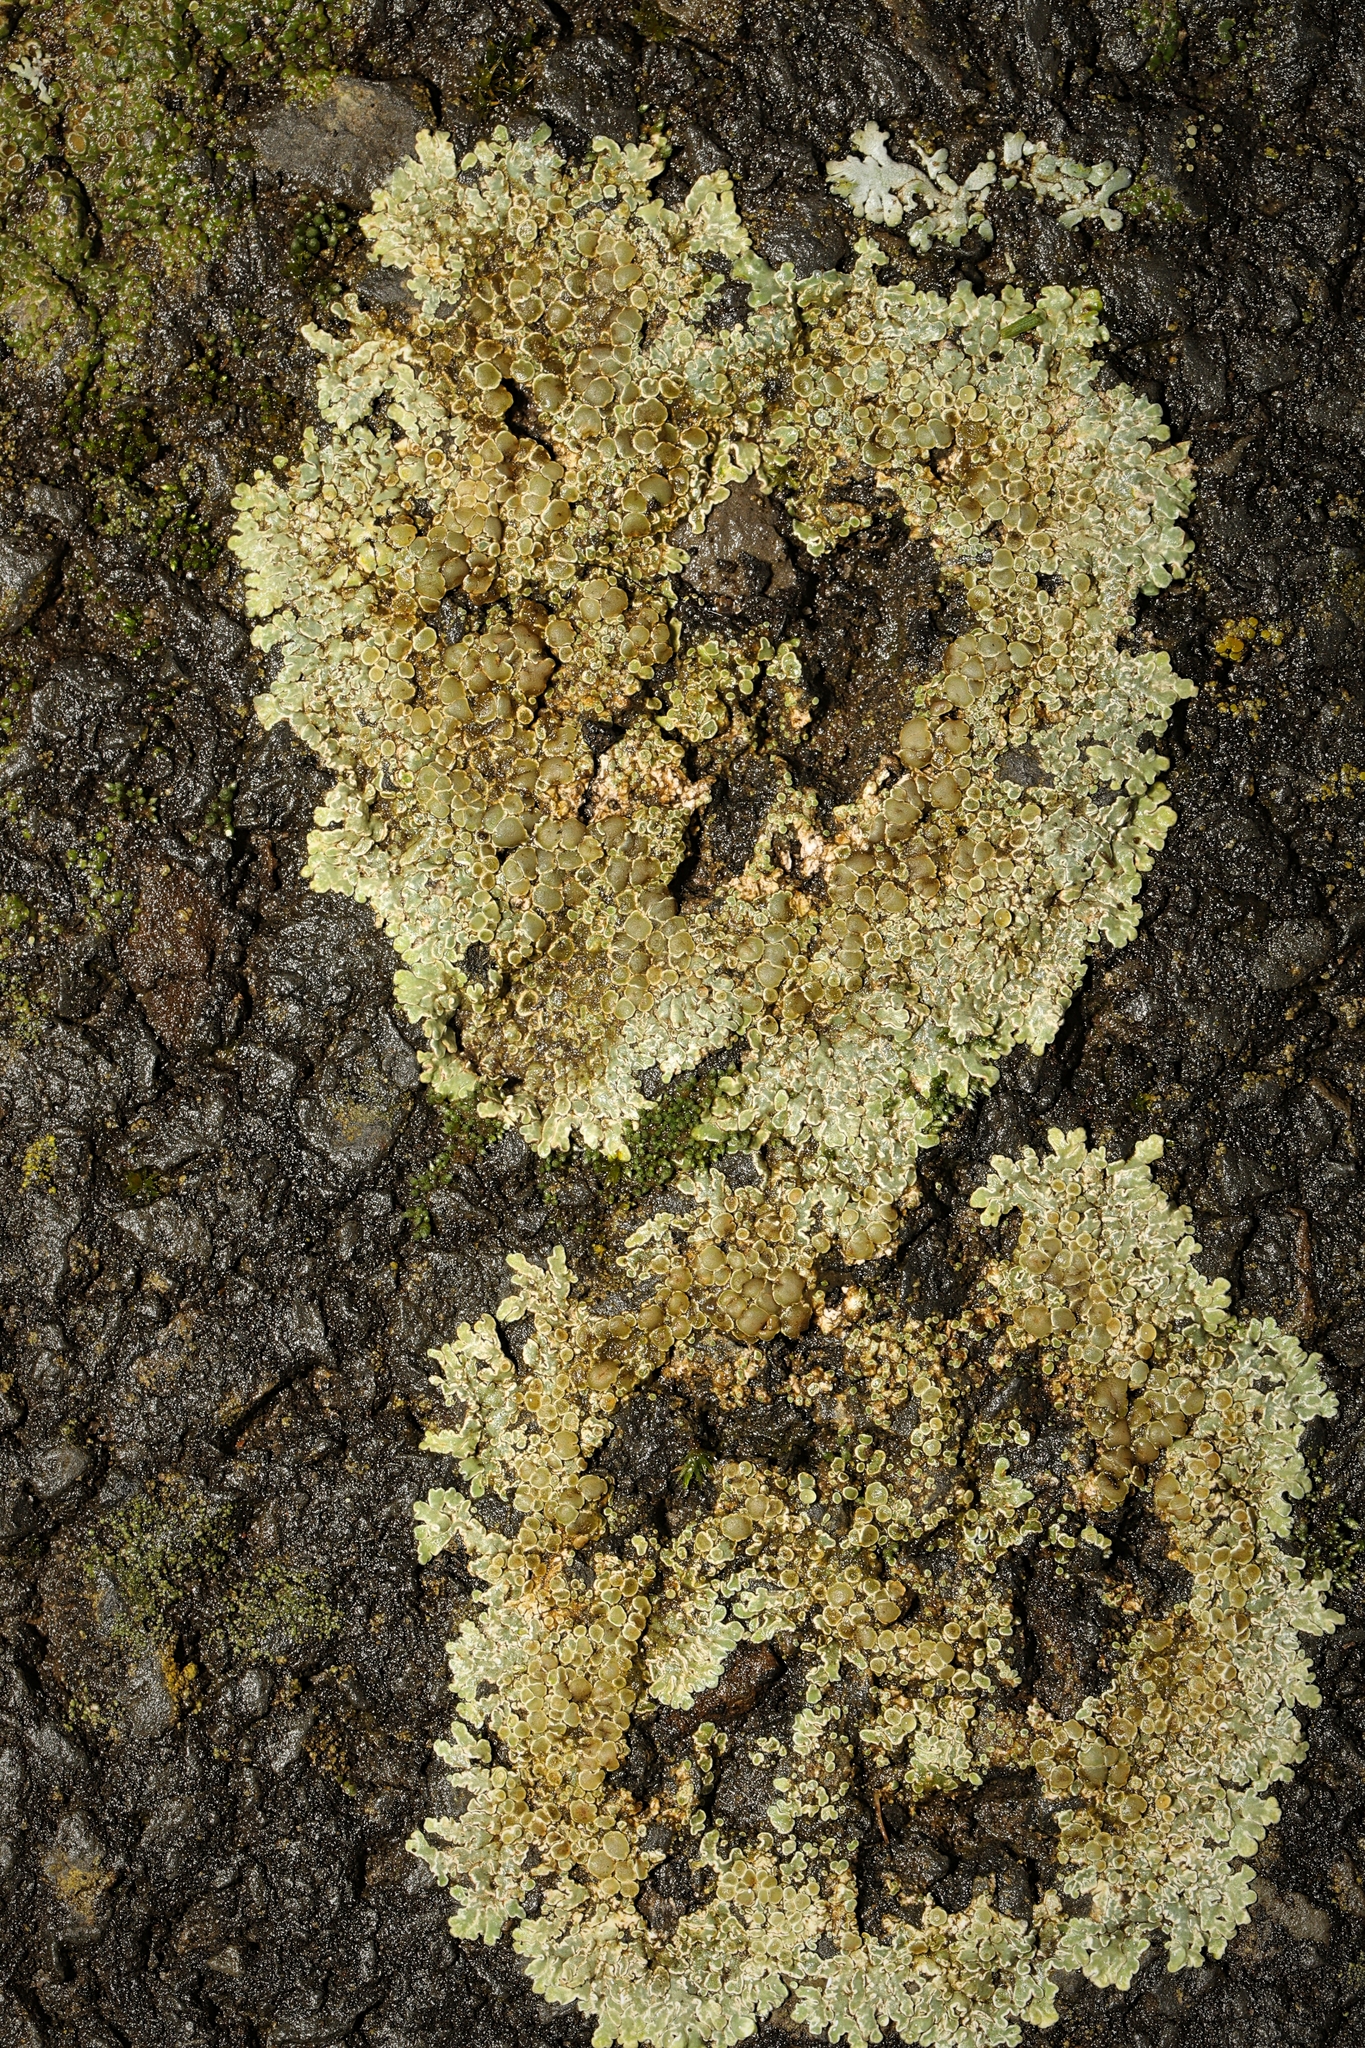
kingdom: Fungi
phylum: Ascomycota
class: Lecanoromycetes
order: Lecanorales
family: Lecanoraceae
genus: Protoparmeliopsis
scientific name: Protoparmeliopsis muralis
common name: Stonewall rim lichen
